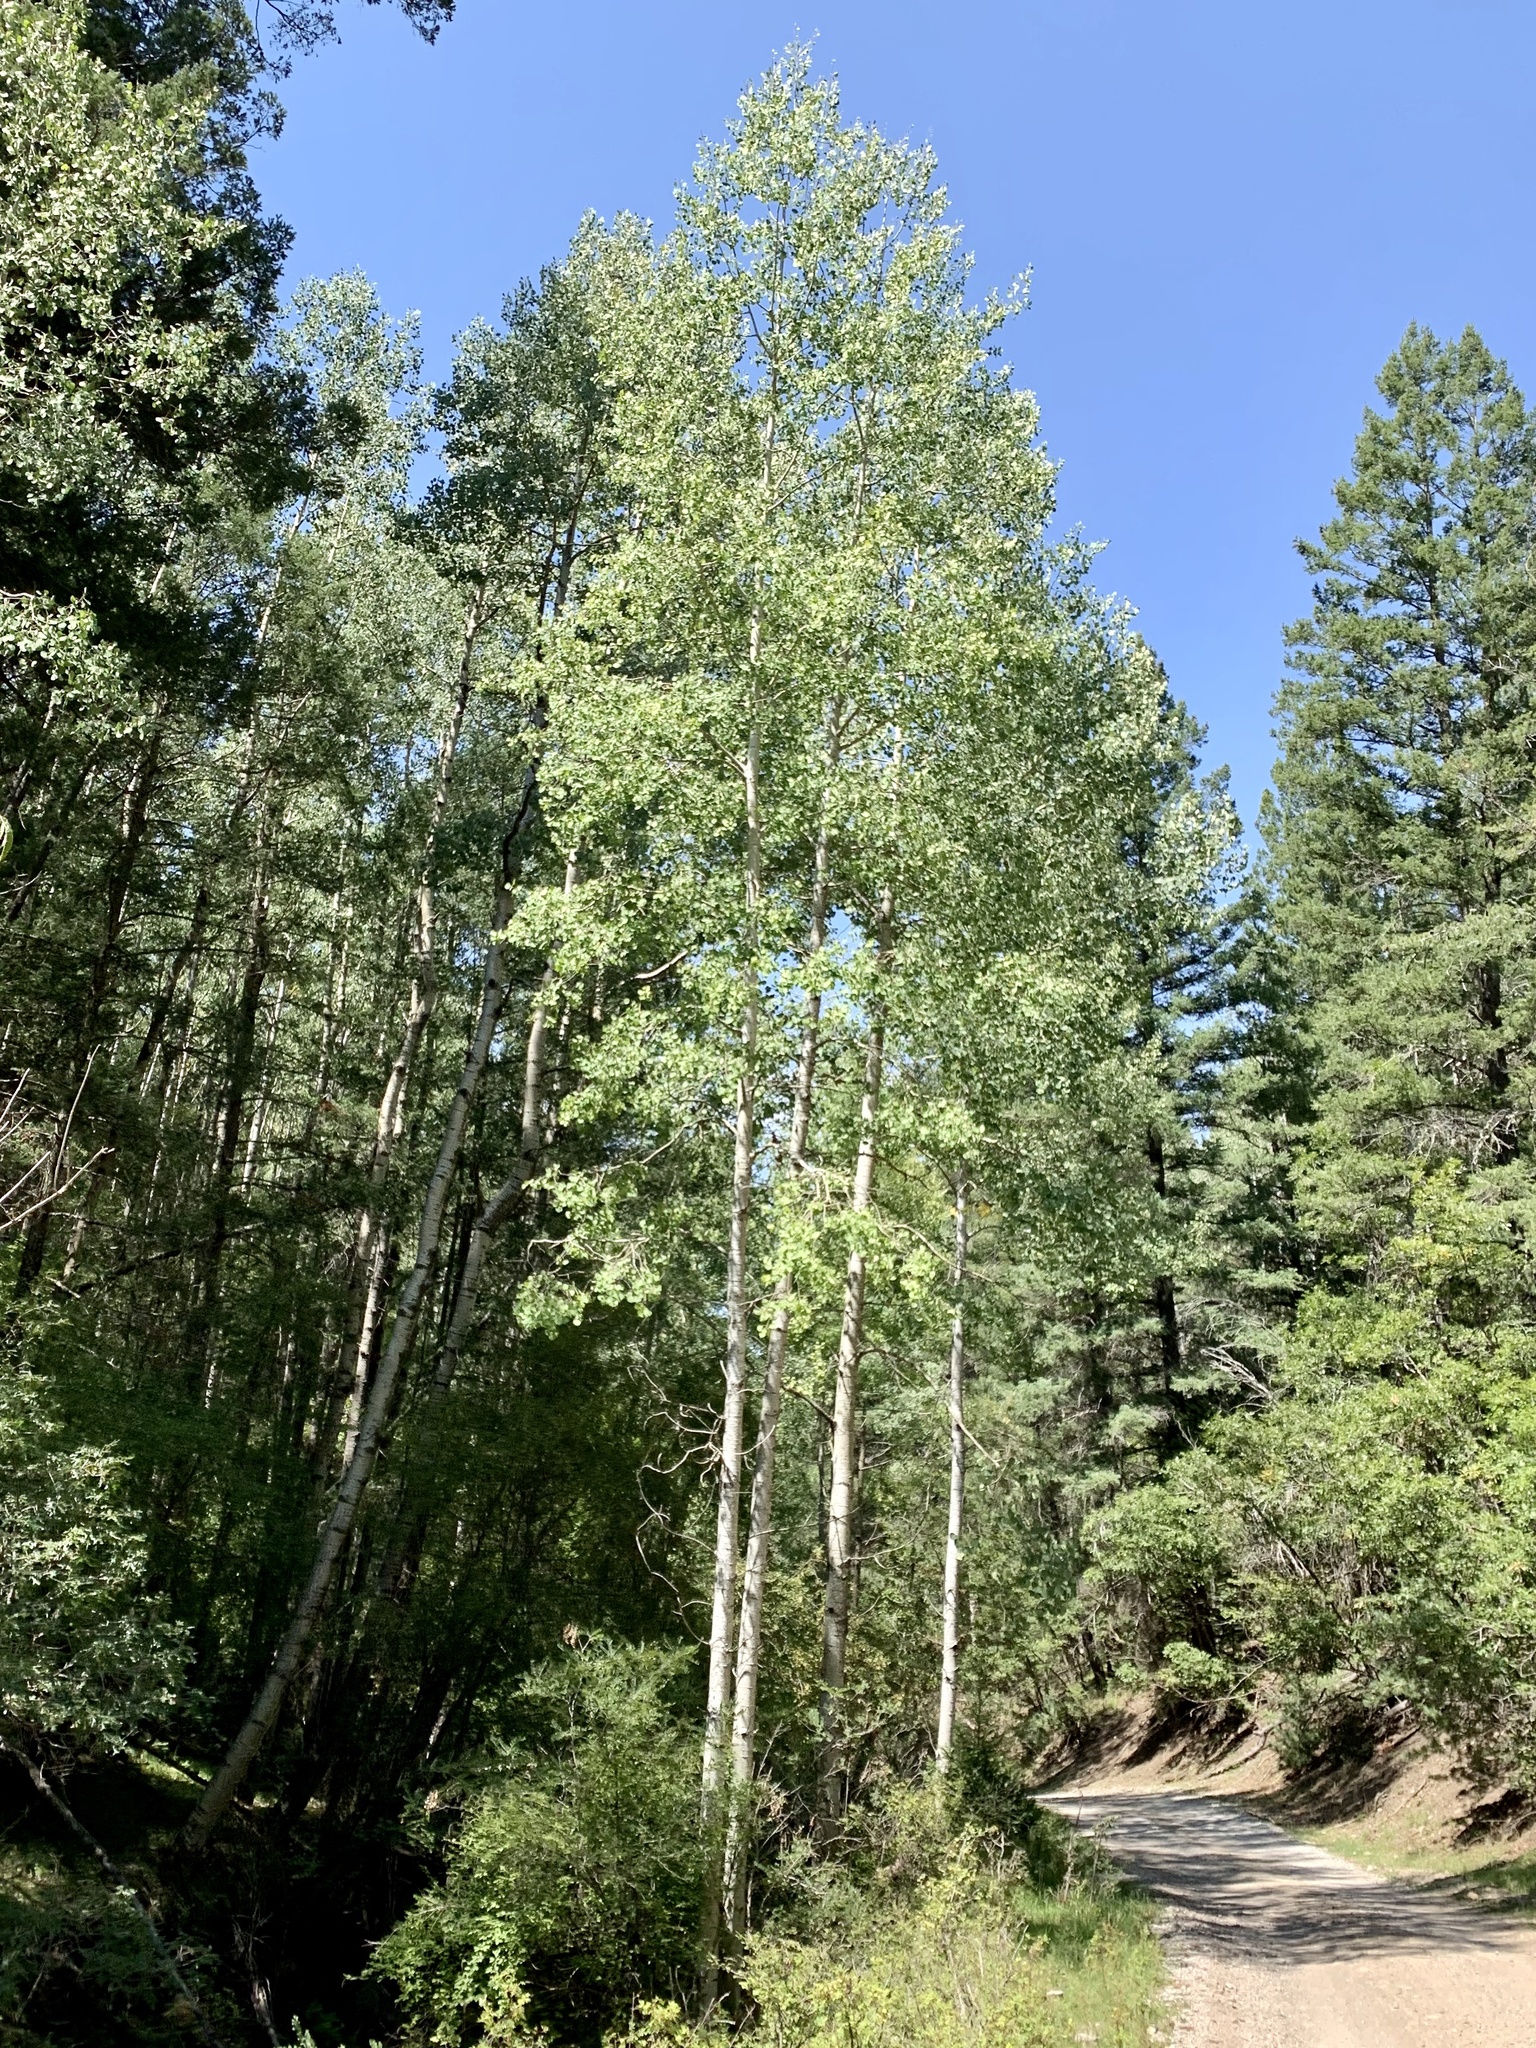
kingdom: Plantae
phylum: Tracheophyta
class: Magnoliopsida
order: Malpighiales
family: Salicaceae
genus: Populus
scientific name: Populus tremuloides
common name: Quaking aspen
